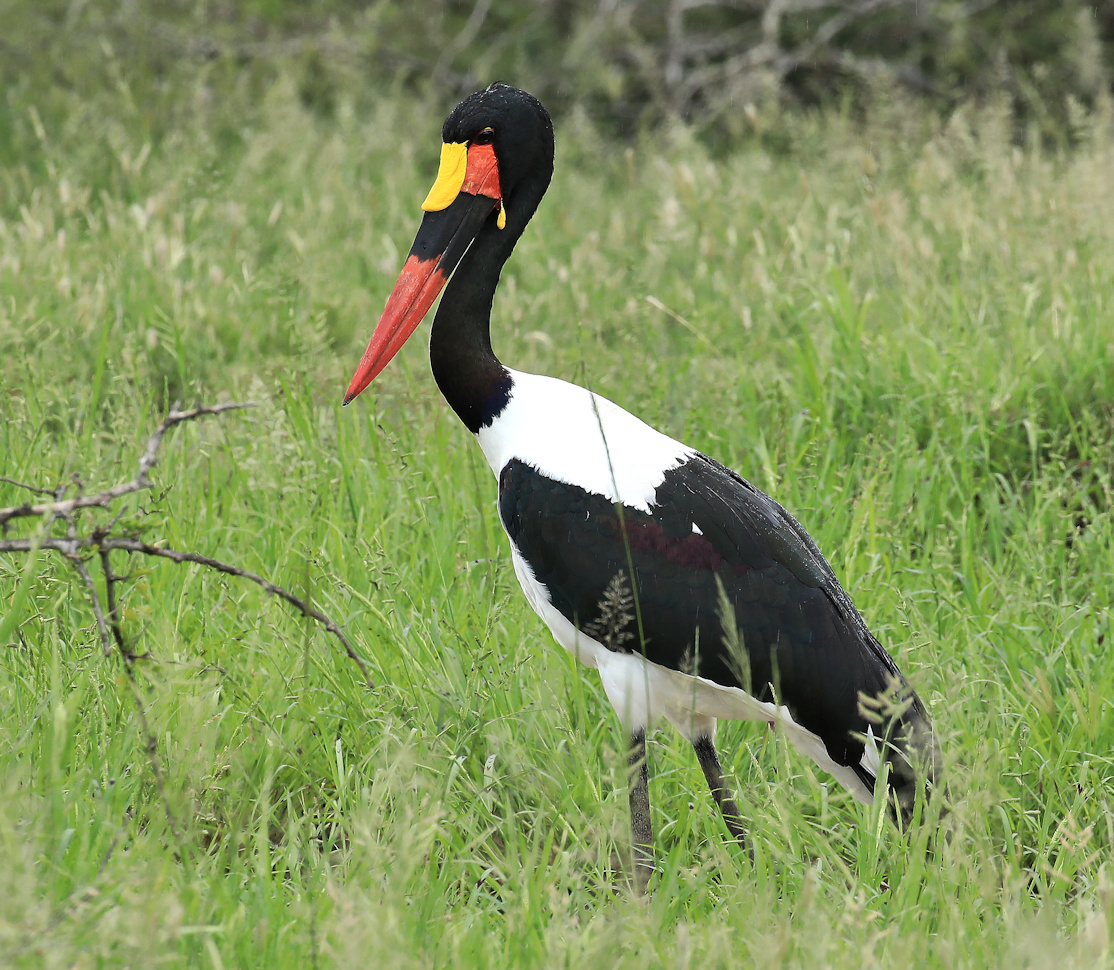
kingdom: Animalia
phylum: Chordata
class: Aves
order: Ciconiiformes
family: Ciconiidae
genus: Ephippiorhynchus
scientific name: Ephippiorhynchus senegalensis
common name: Saddle-billed stork
